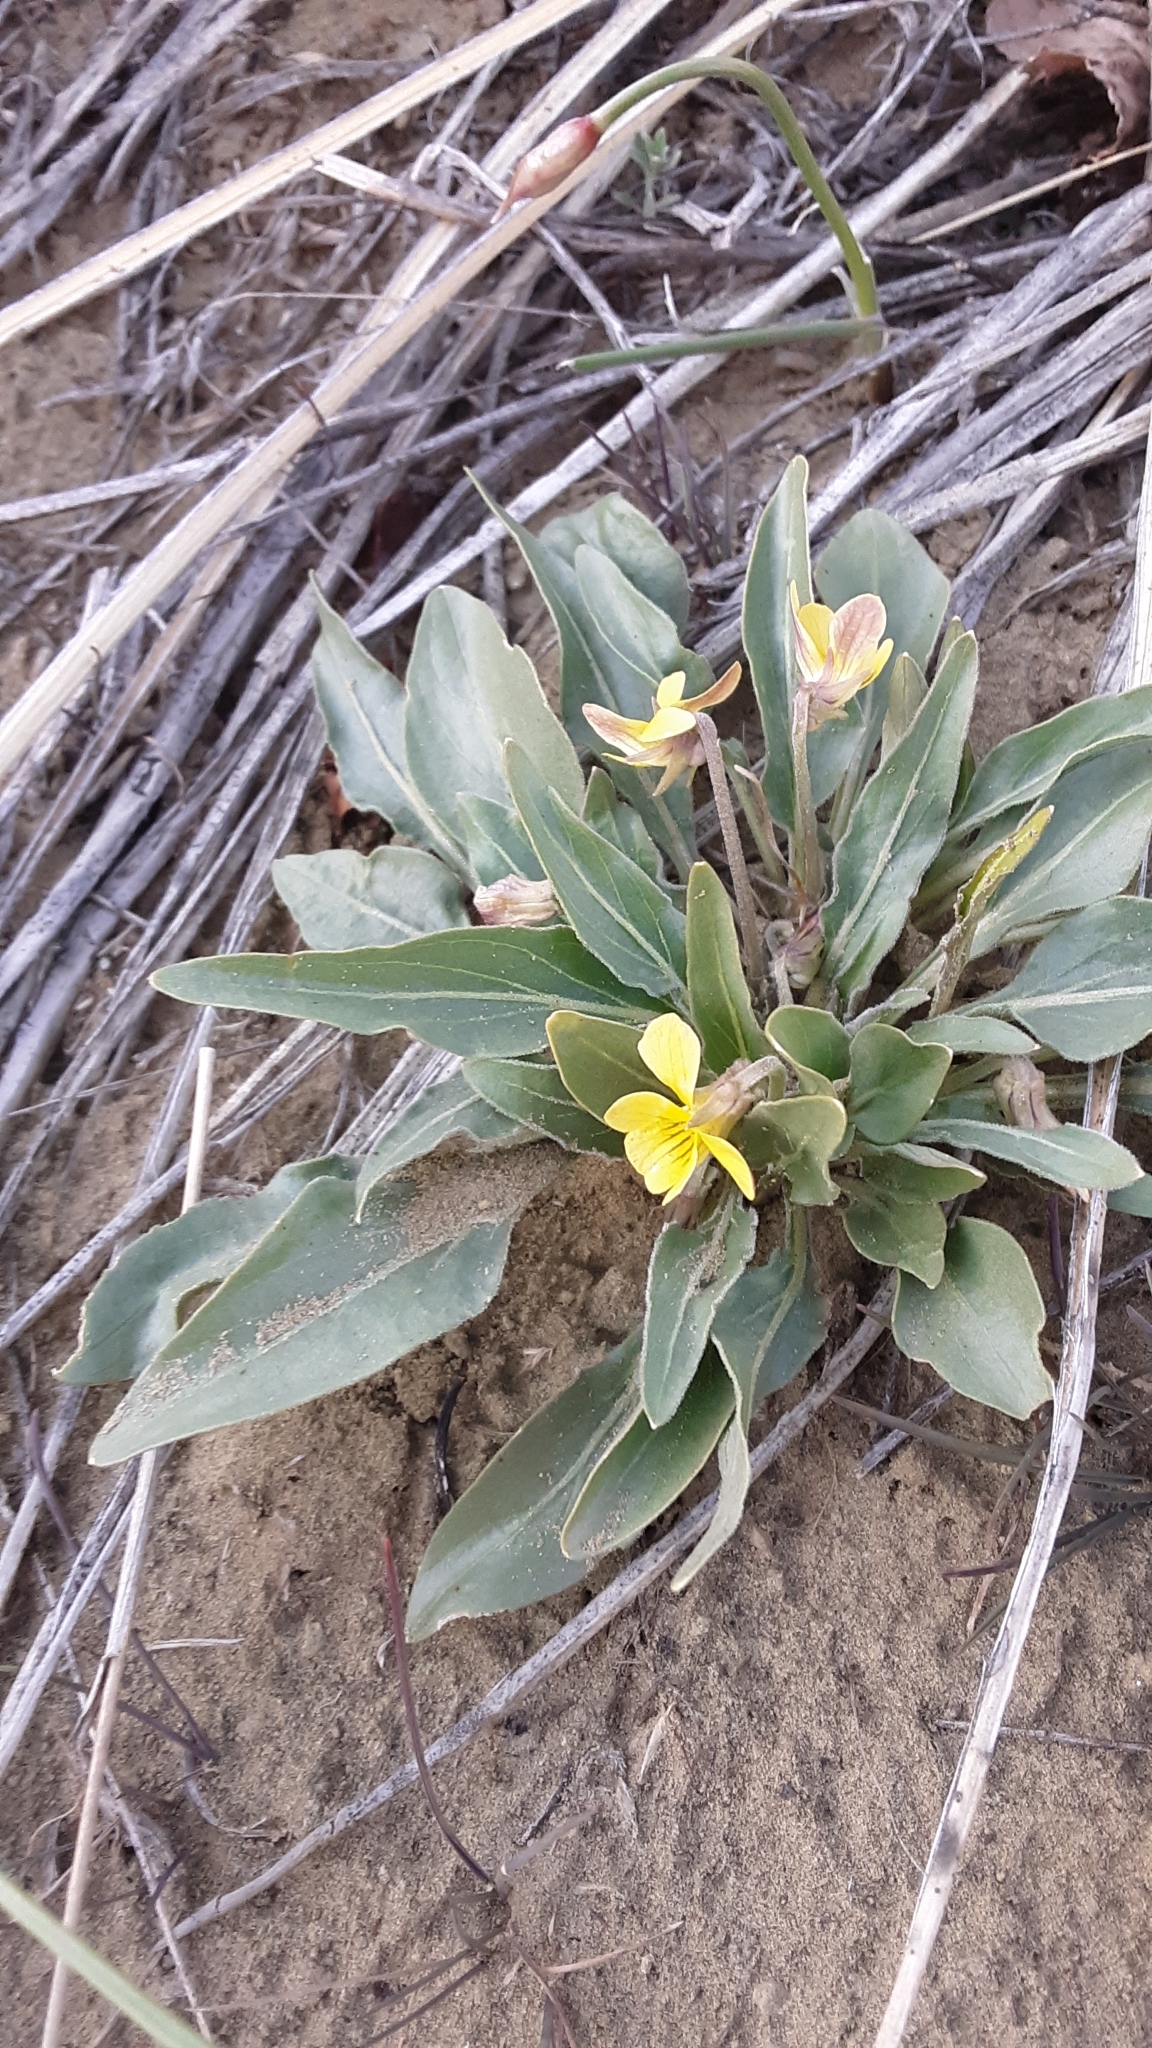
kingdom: Plantae
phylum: Tracheophyta
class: Magnoliopsida
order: Malpighiales
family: Violaceae
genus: Viola
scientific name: Viola nuttallii
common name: Yellow prairie violet
